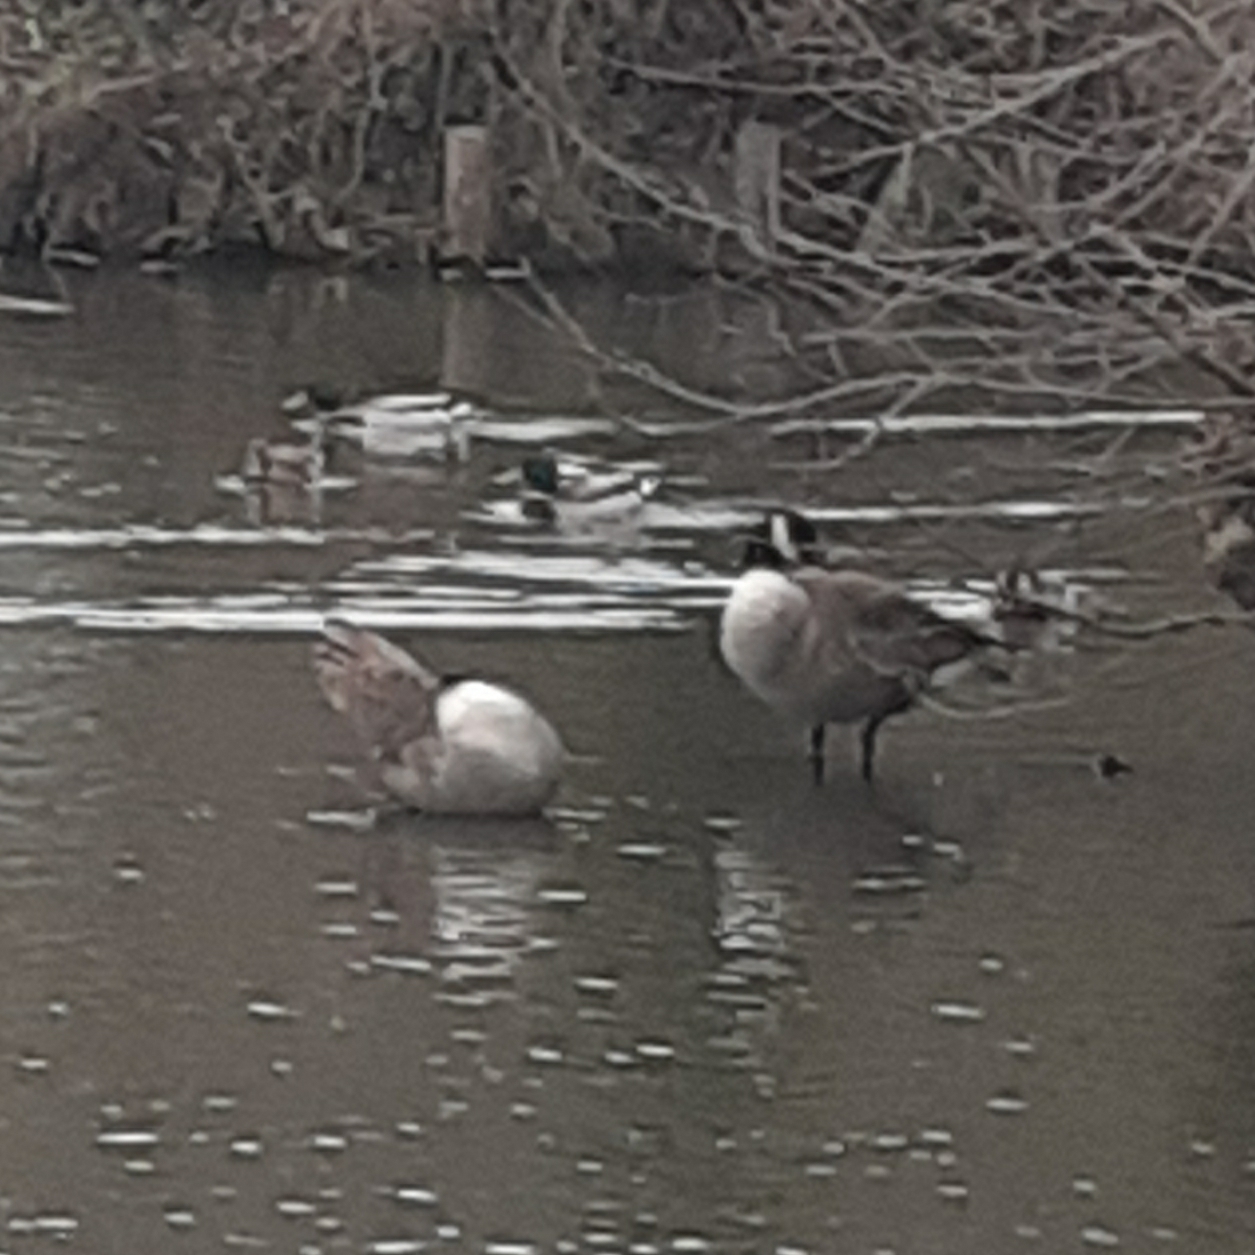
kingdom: Animalia
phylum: Chordata
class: Aves
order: Anseriformes
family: Anatidae
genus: Branta
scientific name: Branta canadensis
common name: Canada goose
